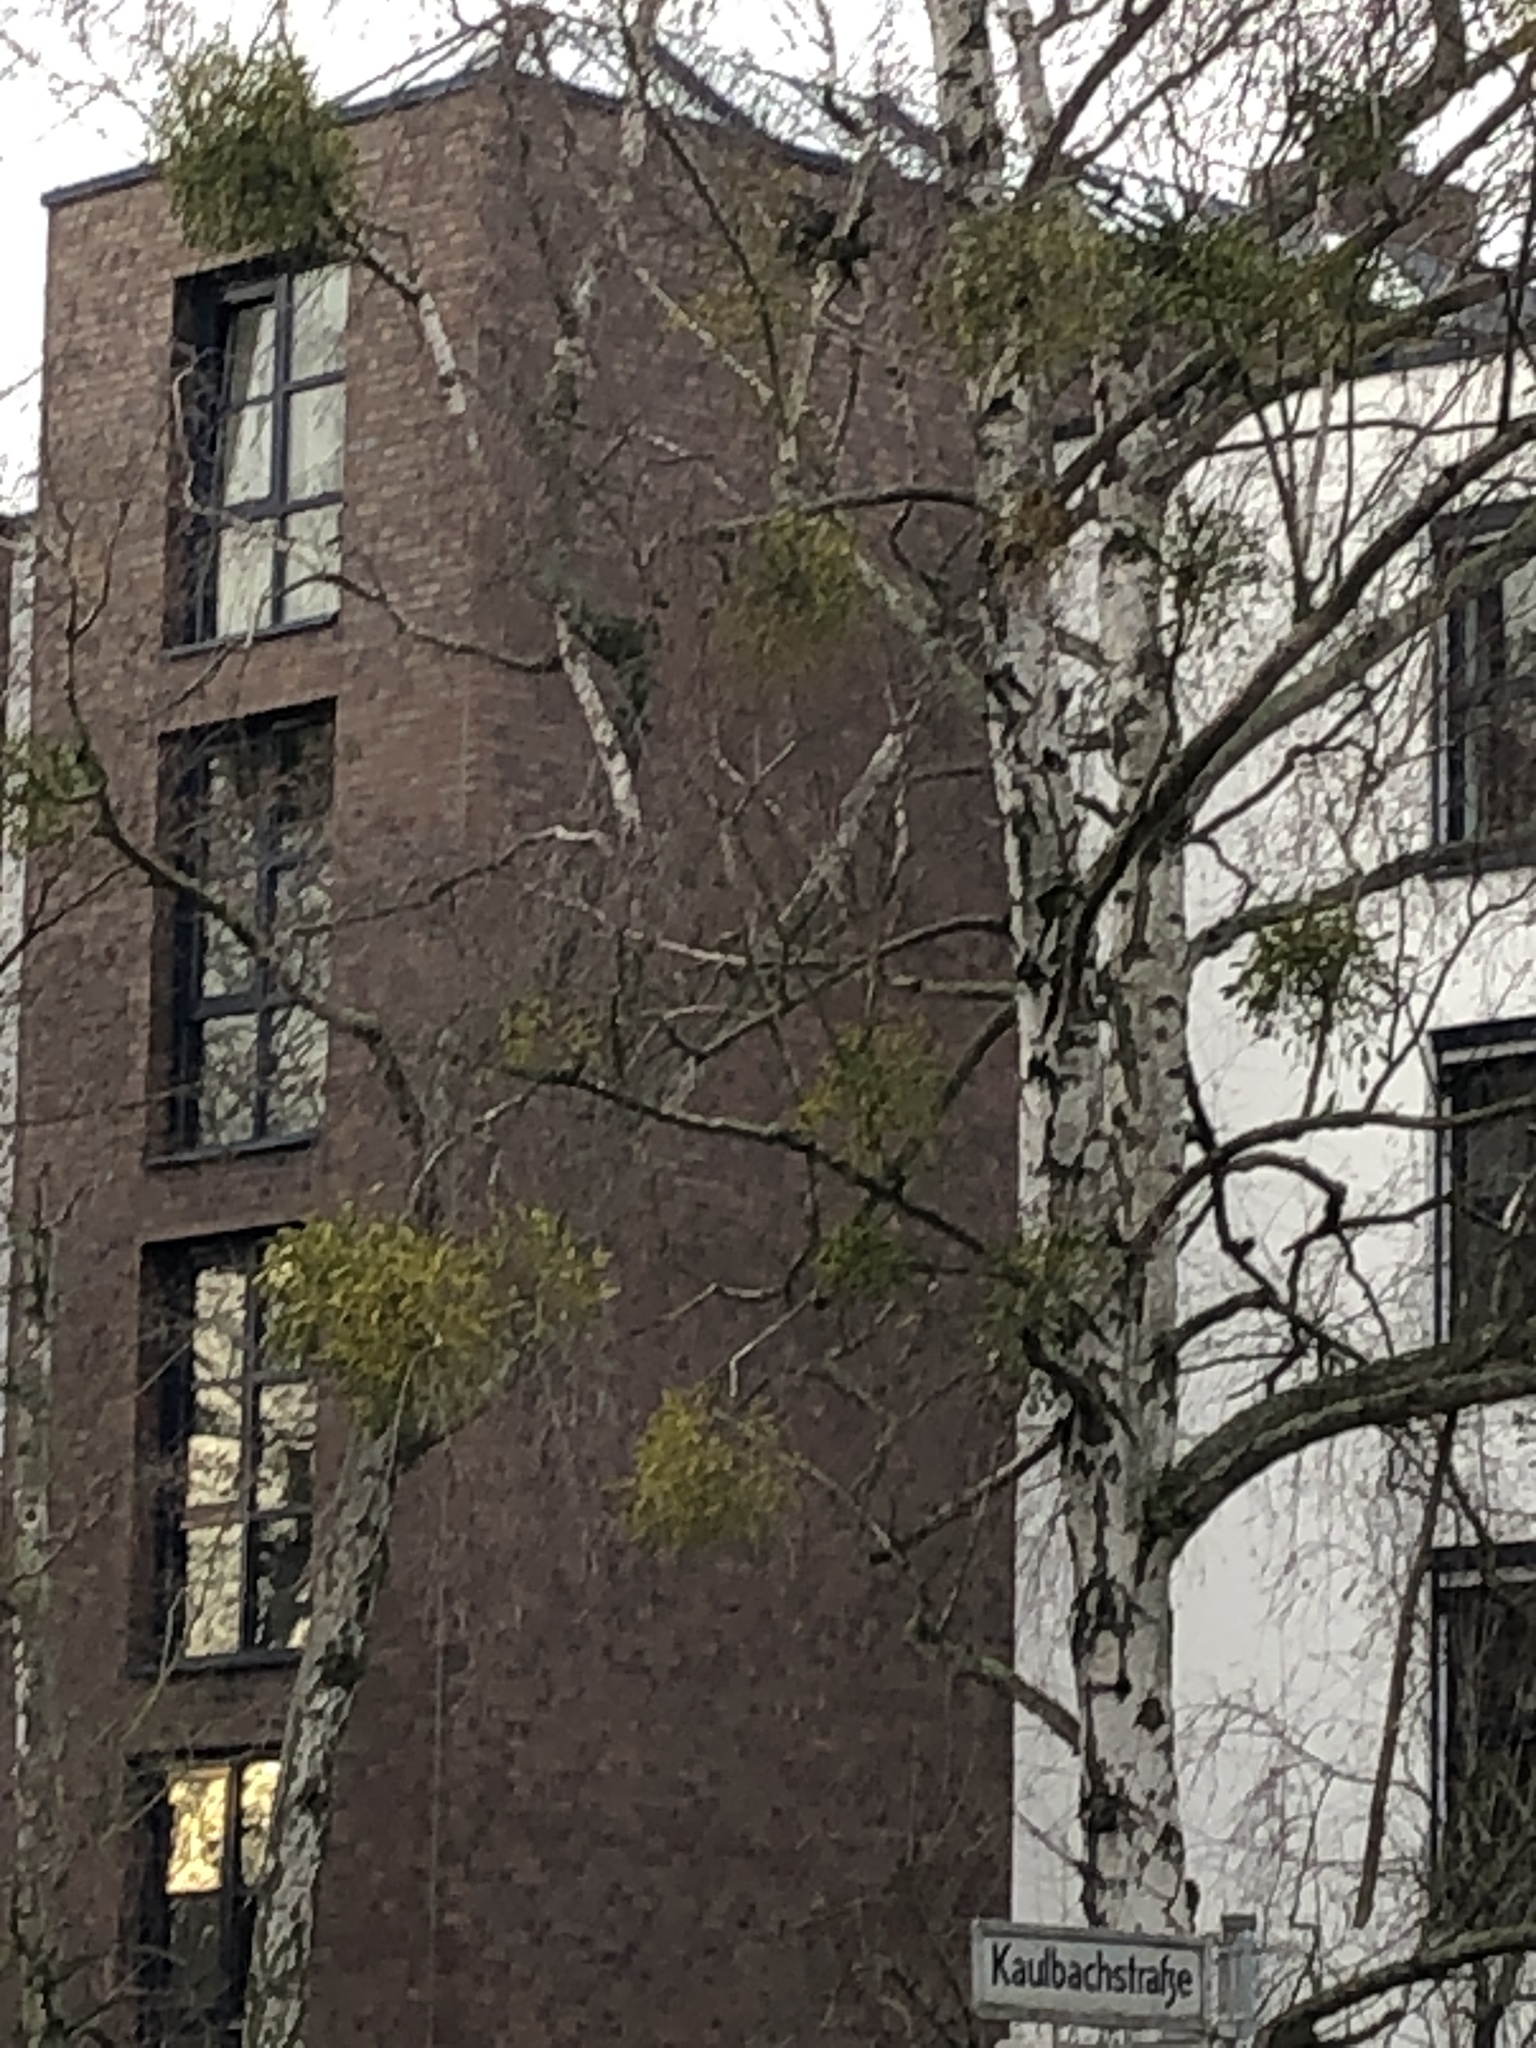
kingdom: Plantae
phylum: Tracheophyta
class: Magnoliopsida
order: Santalales
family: Viscaceae
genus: Viscum
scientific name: Viscum album
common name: Mistletoe
